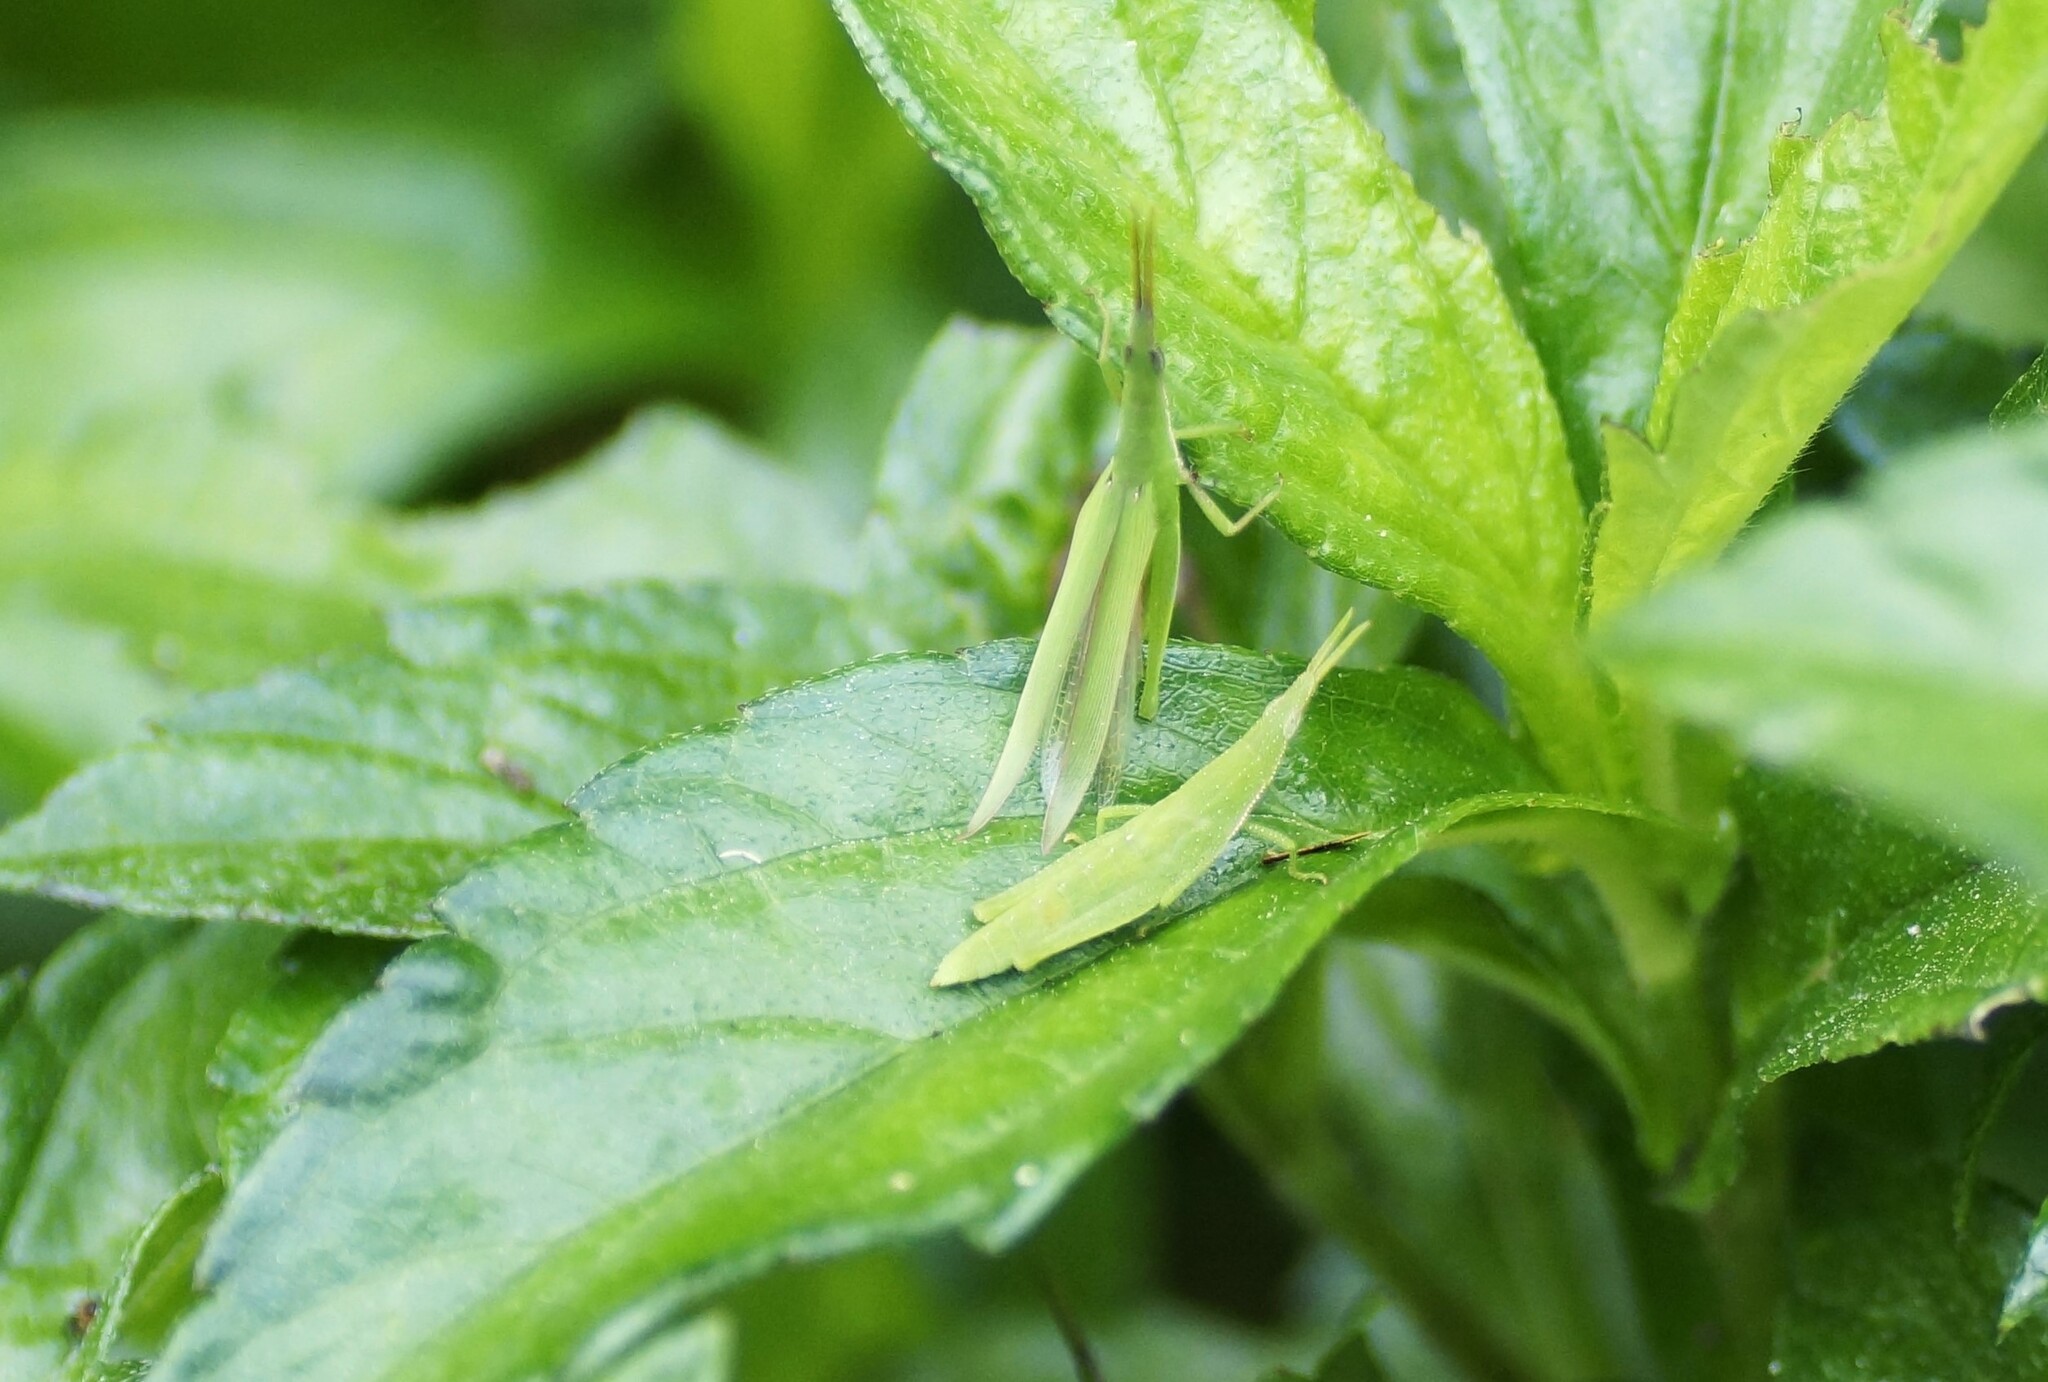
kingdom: Animalia
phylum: Arthropoda
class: Insecta
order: Orthoptera
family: Pyrgomorphidae
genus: Atractomorpha
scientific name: Atractomorpha similis
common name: Northern grass pyrgomorph
